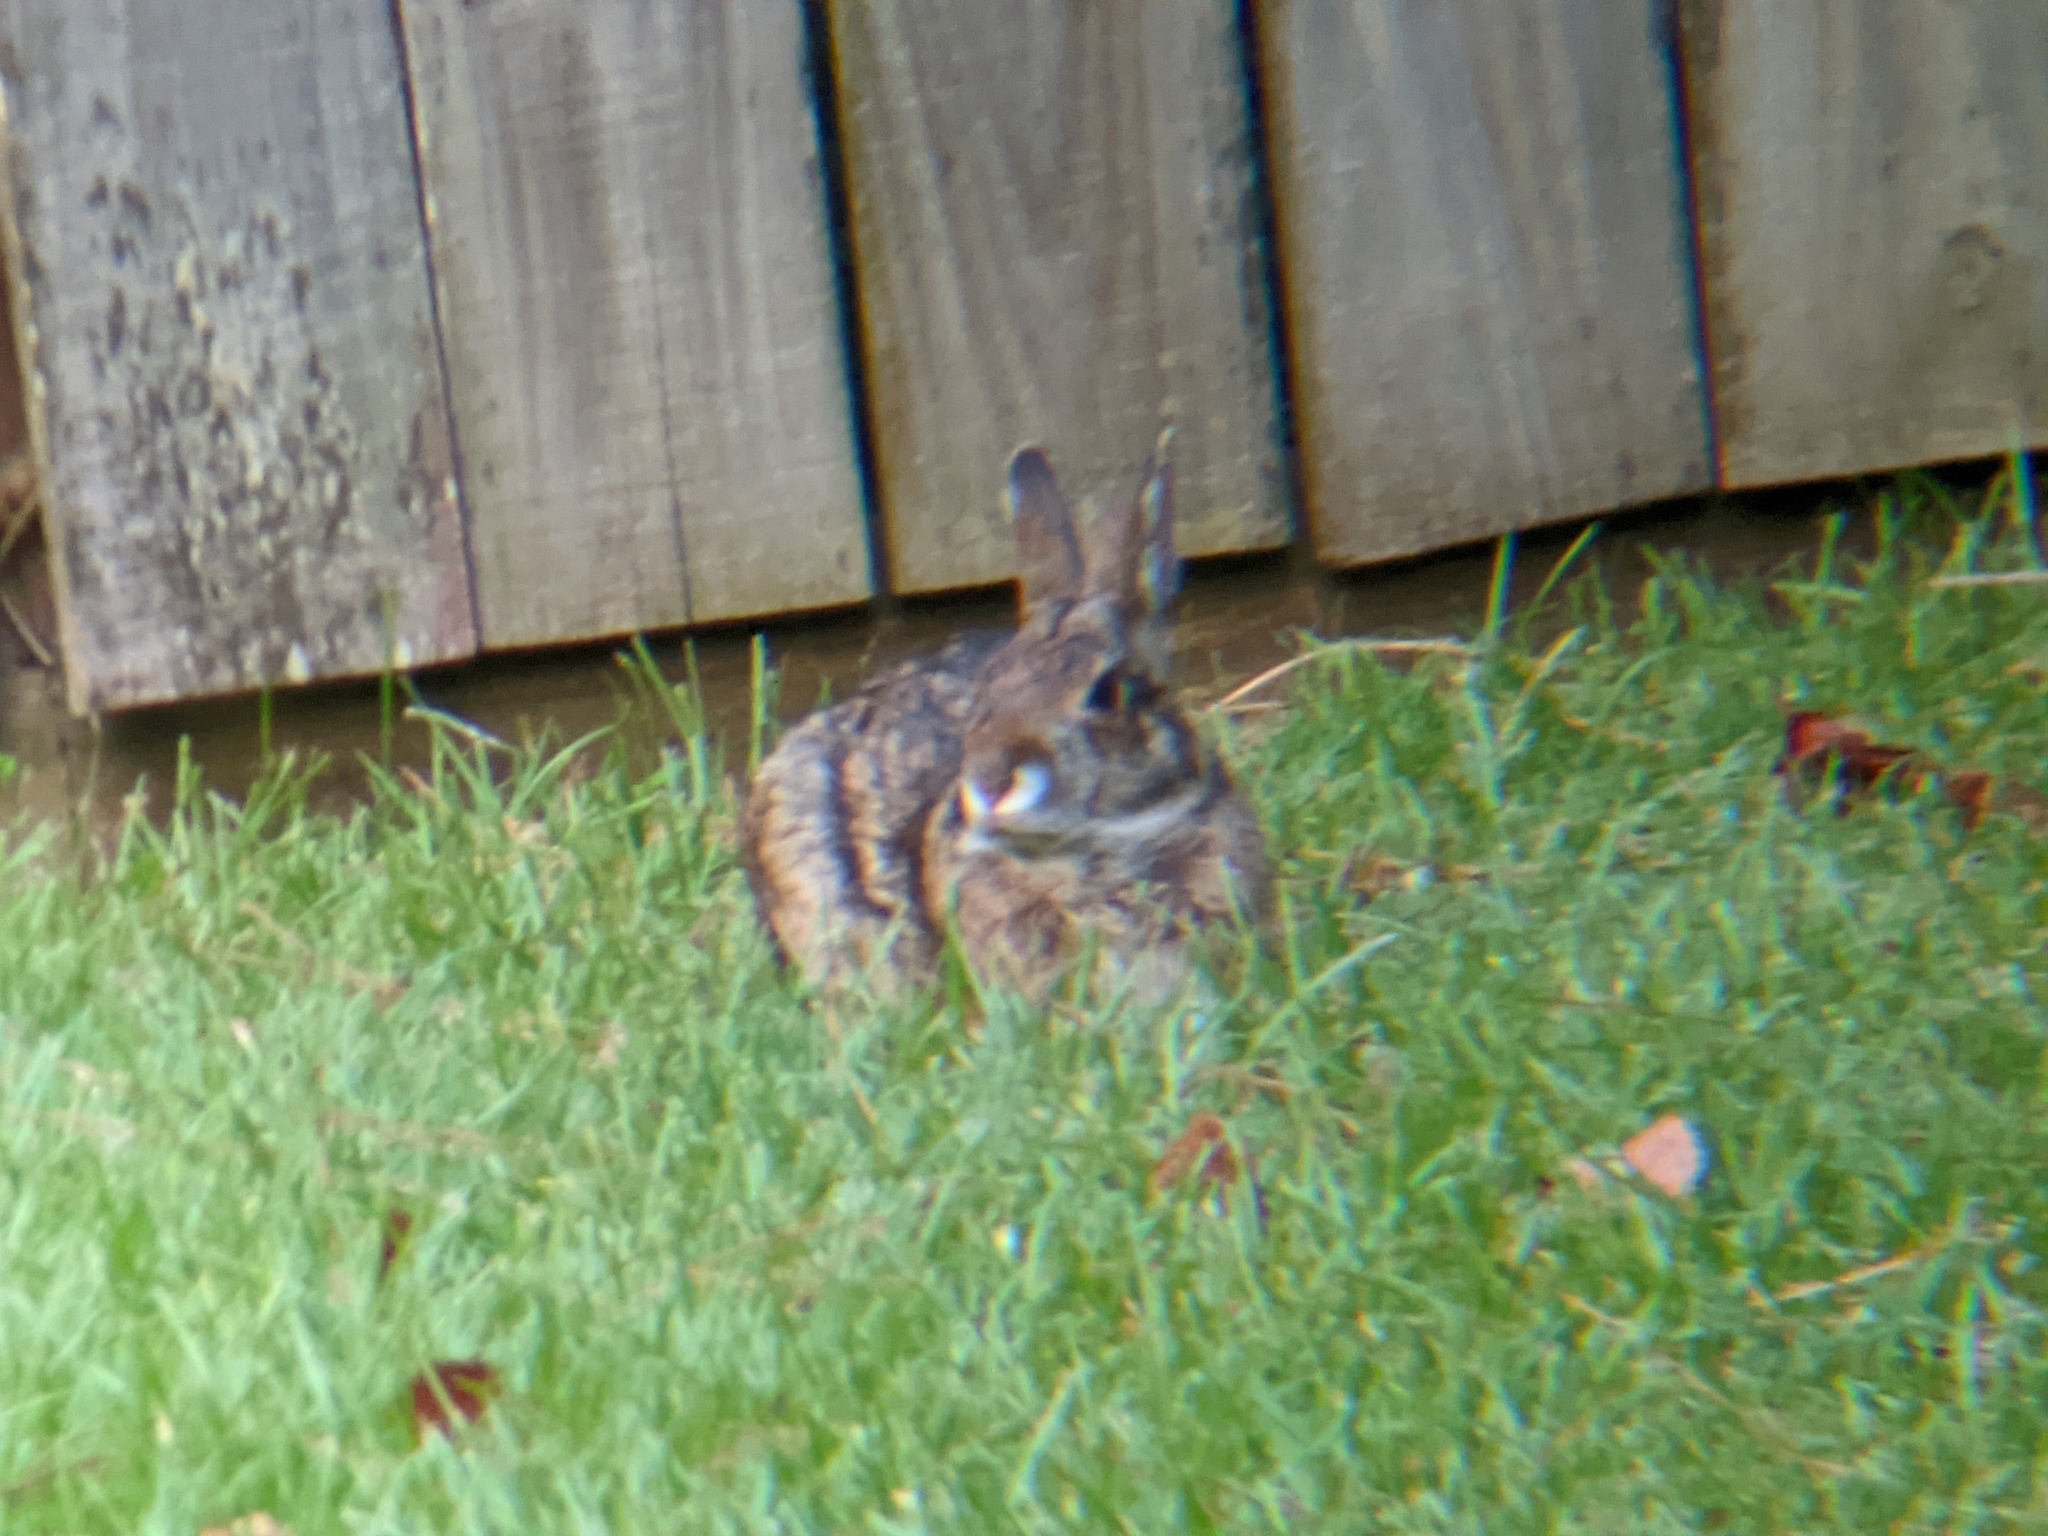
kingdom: Animalia
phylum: Chordata
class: Mammalia
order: Lagomorpha
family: Leporidae
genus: Sylvilagus
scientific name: Sylvilagus aquaticus
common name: Swamp rabbit
